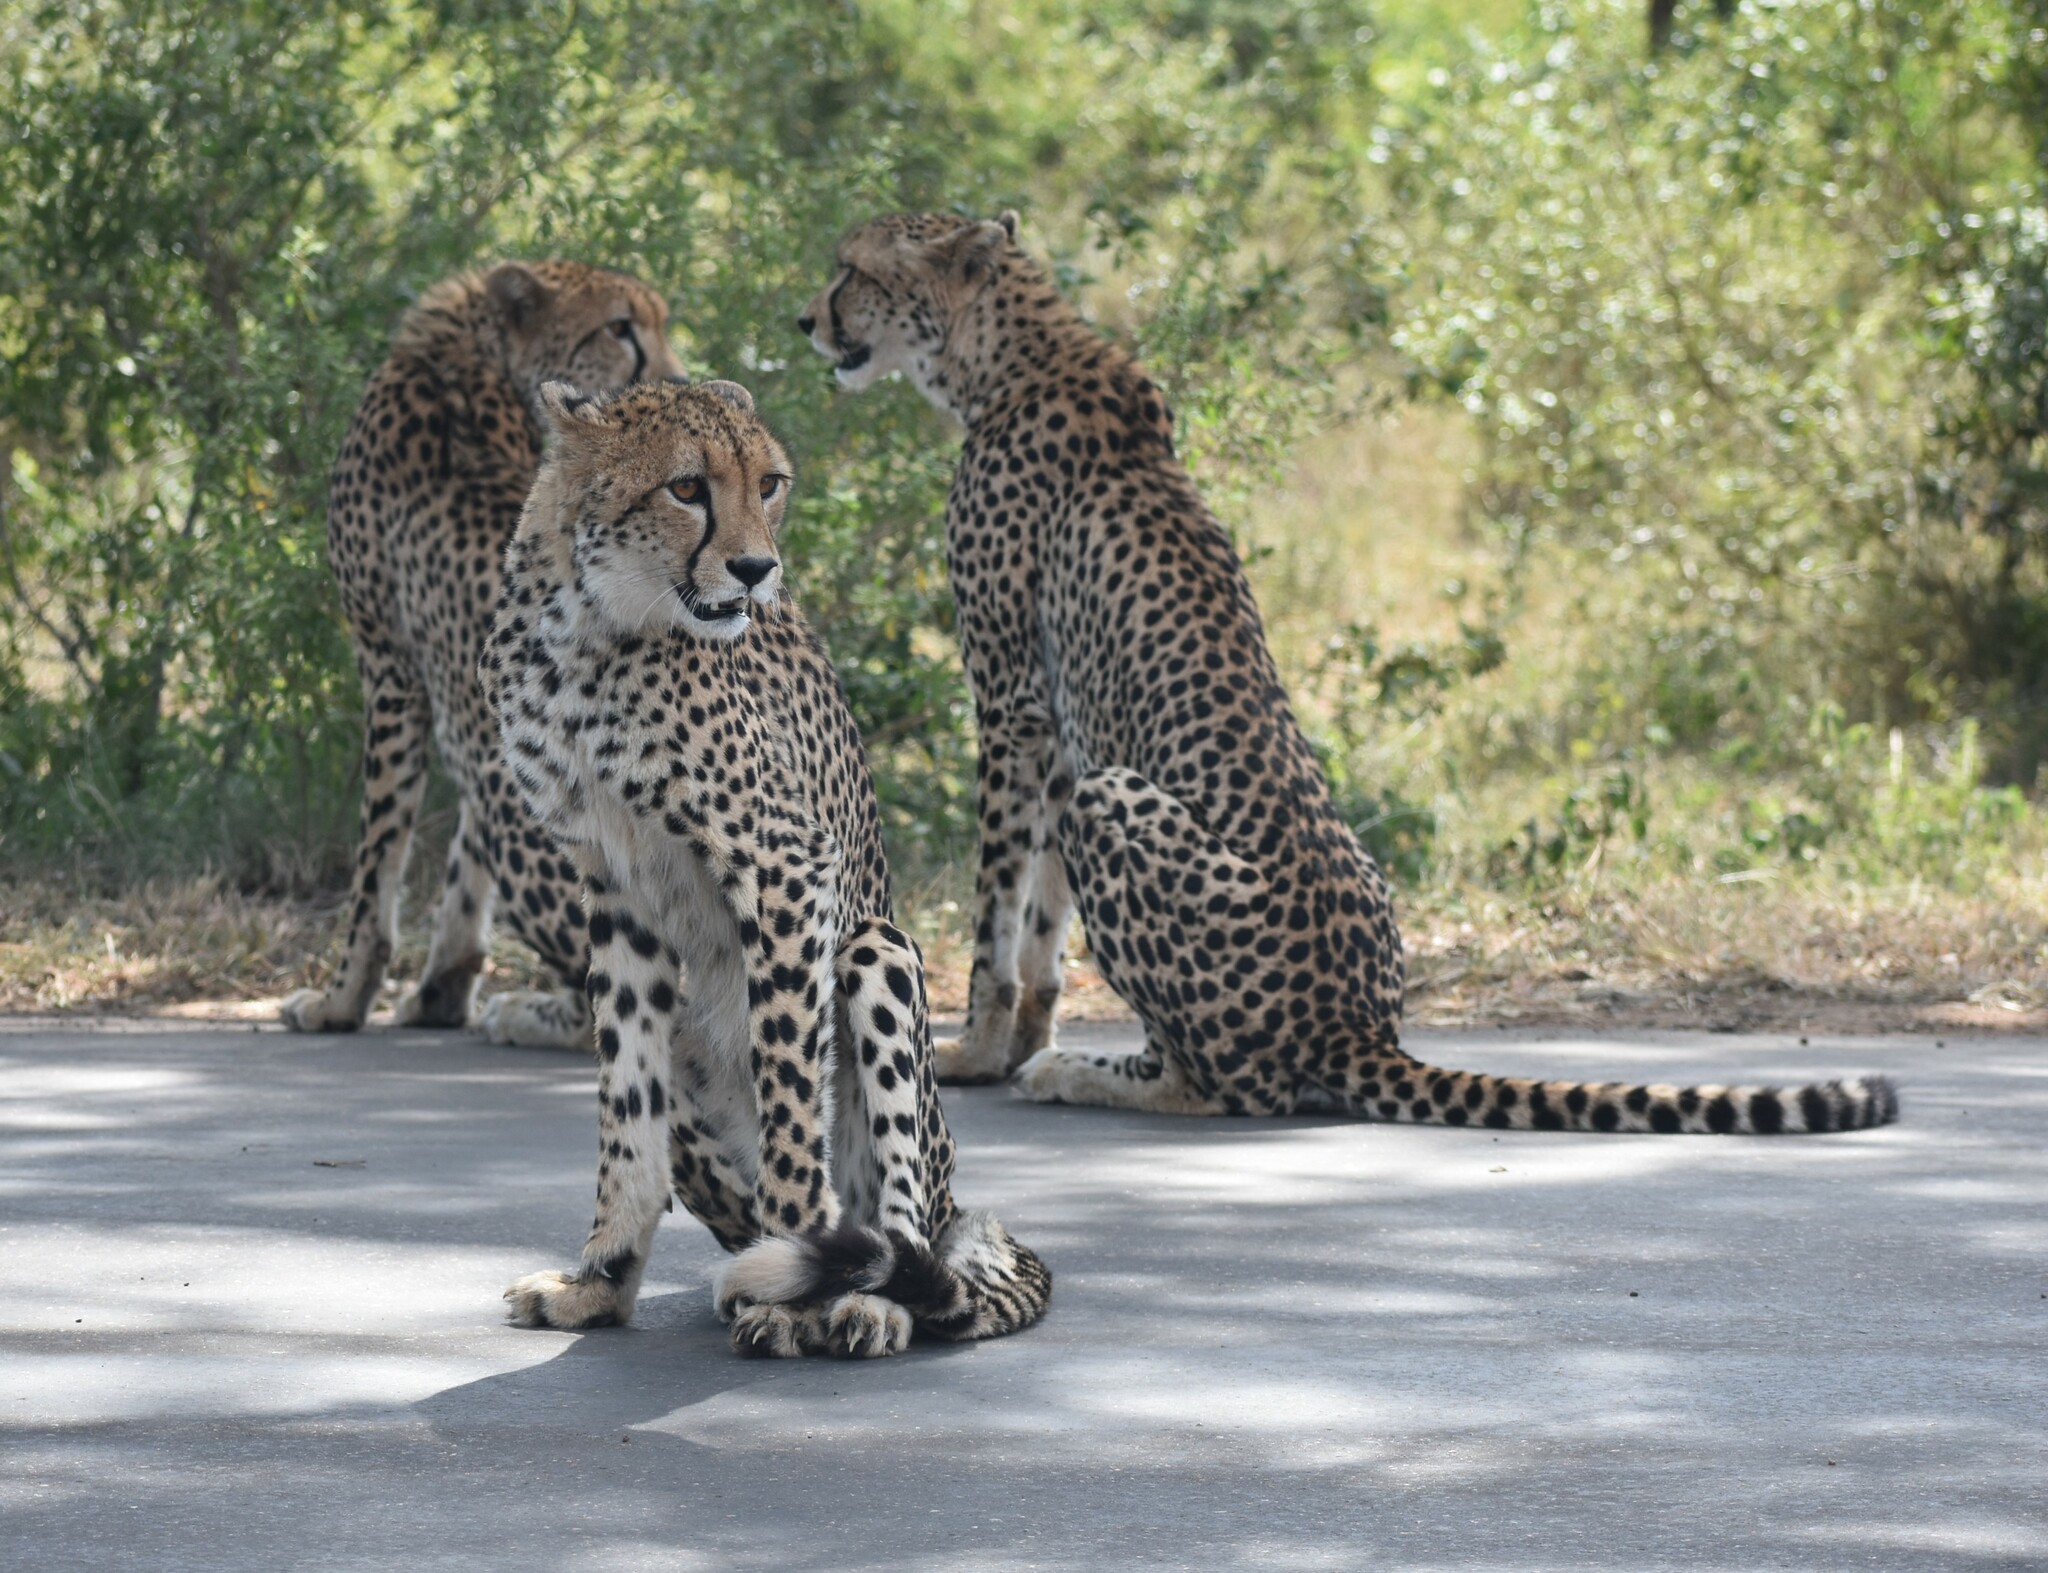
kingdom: Animalia
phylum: Chordata
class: Mammalia
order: Carnivora
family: Felidae
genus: Acinonyx
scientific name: Acinonyx jubatus
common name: Cheetah
